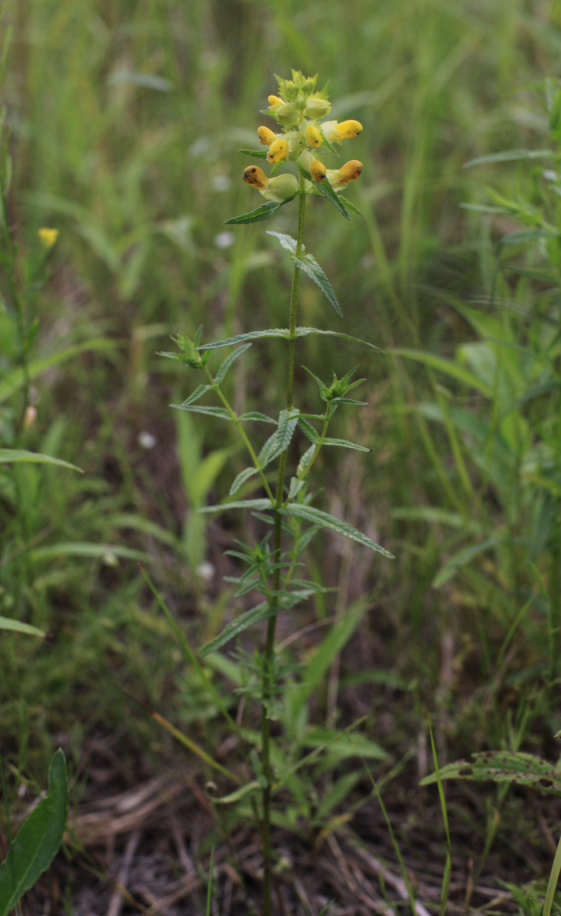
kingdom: Plantae
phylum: Tracheophyta
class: Magnoliopsida
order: Lamiales
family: Orobanchaceae
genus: Rhinanthus
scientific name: Rhinanthus serotinus
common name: Late-flowering yellow rattle
